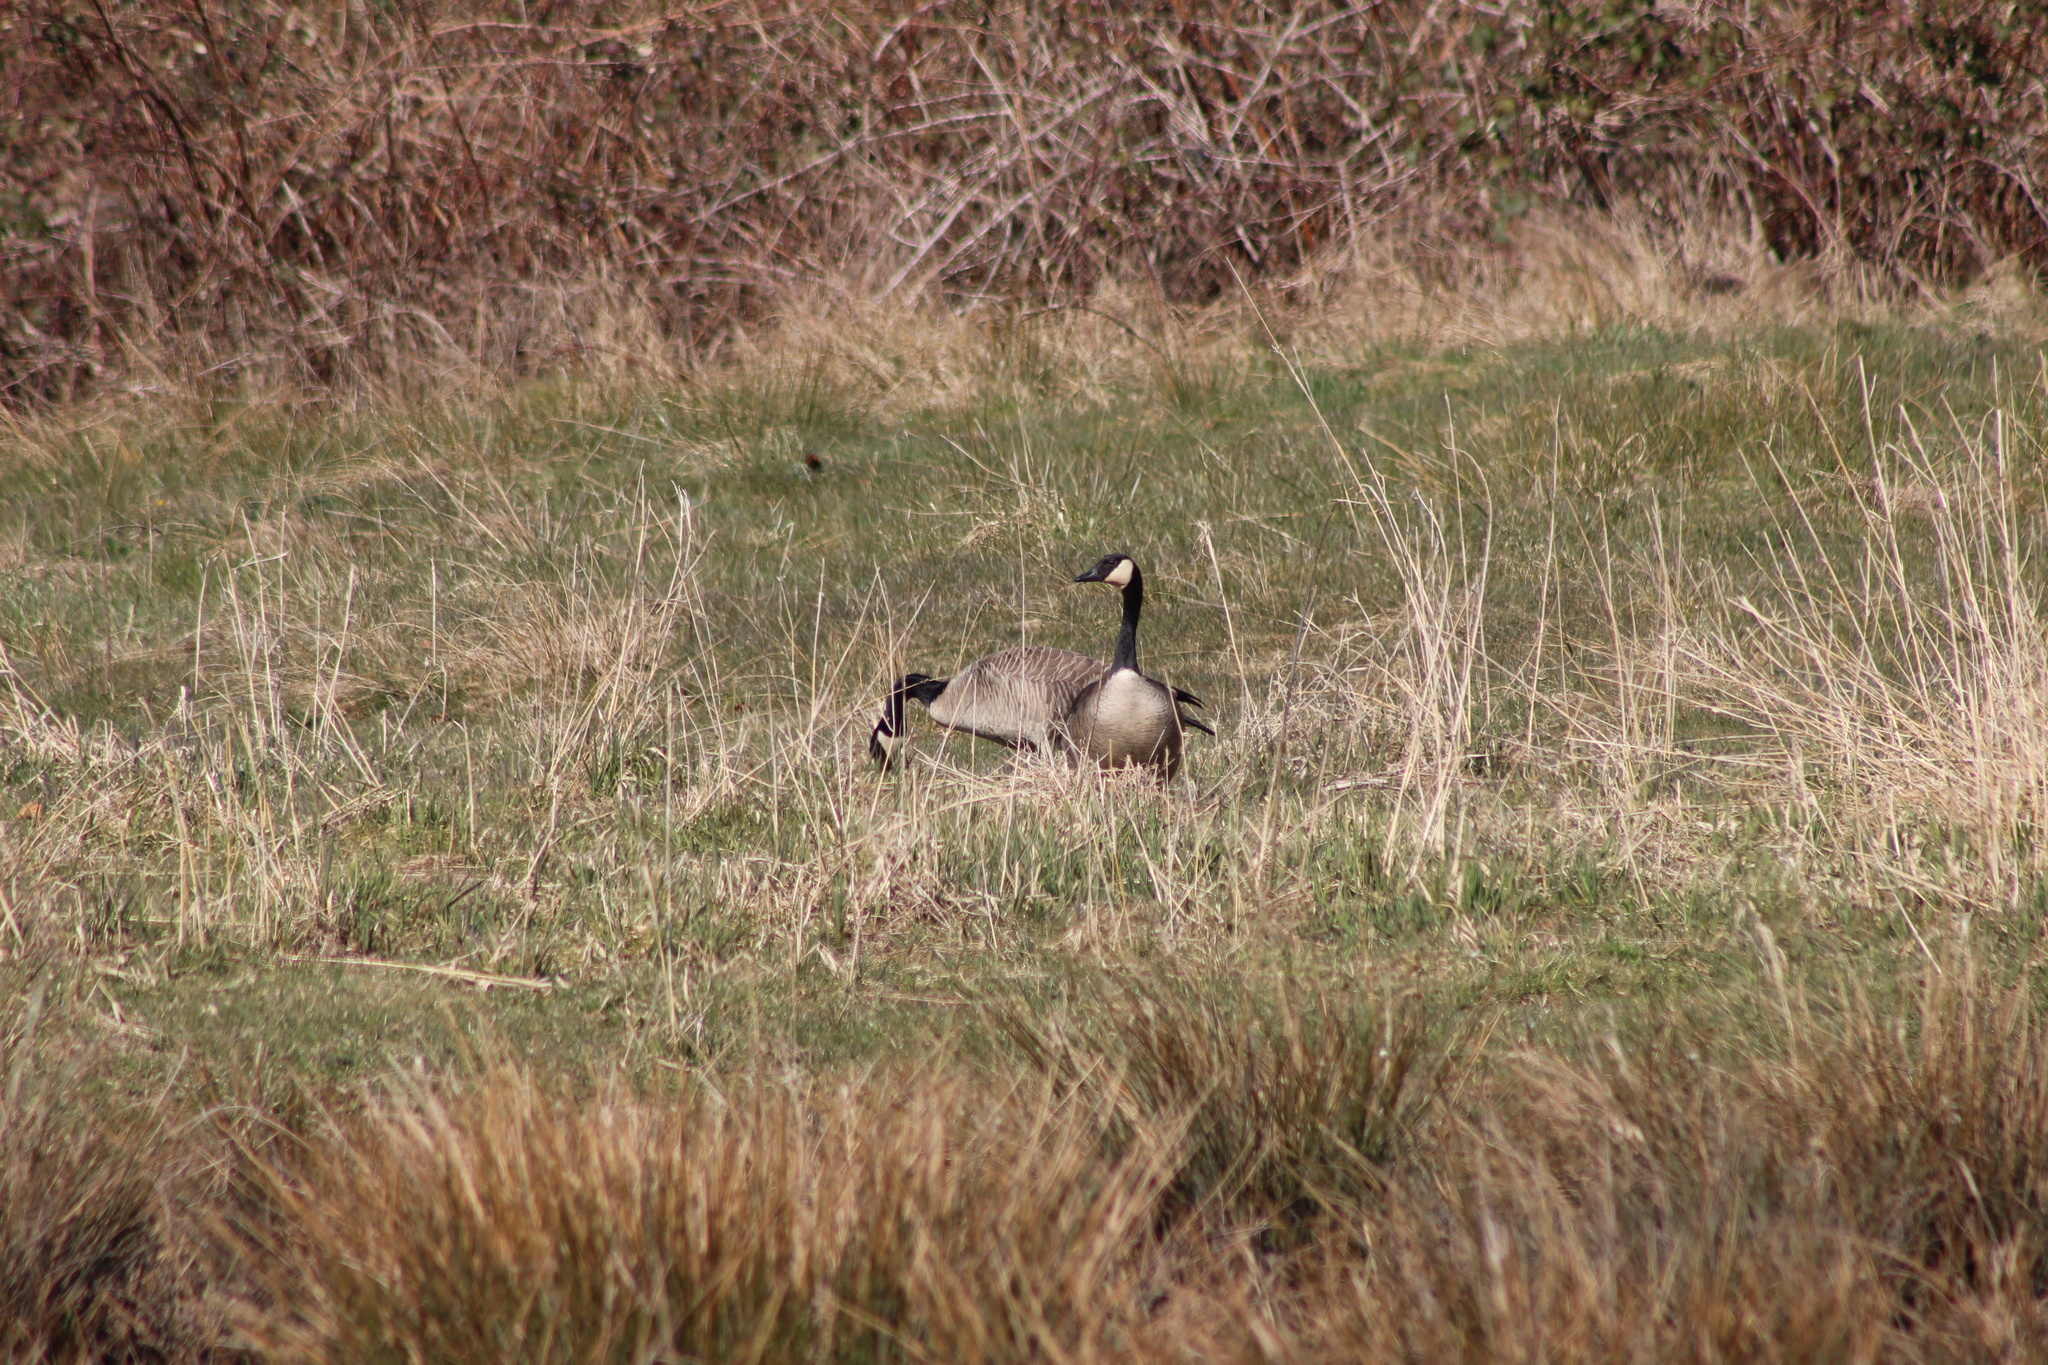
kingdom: Animalia
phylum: Chordata
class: Aves
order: Anseriformes
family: Anatidae
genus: Branta
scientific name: Branta canadensis
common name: Canada goose
